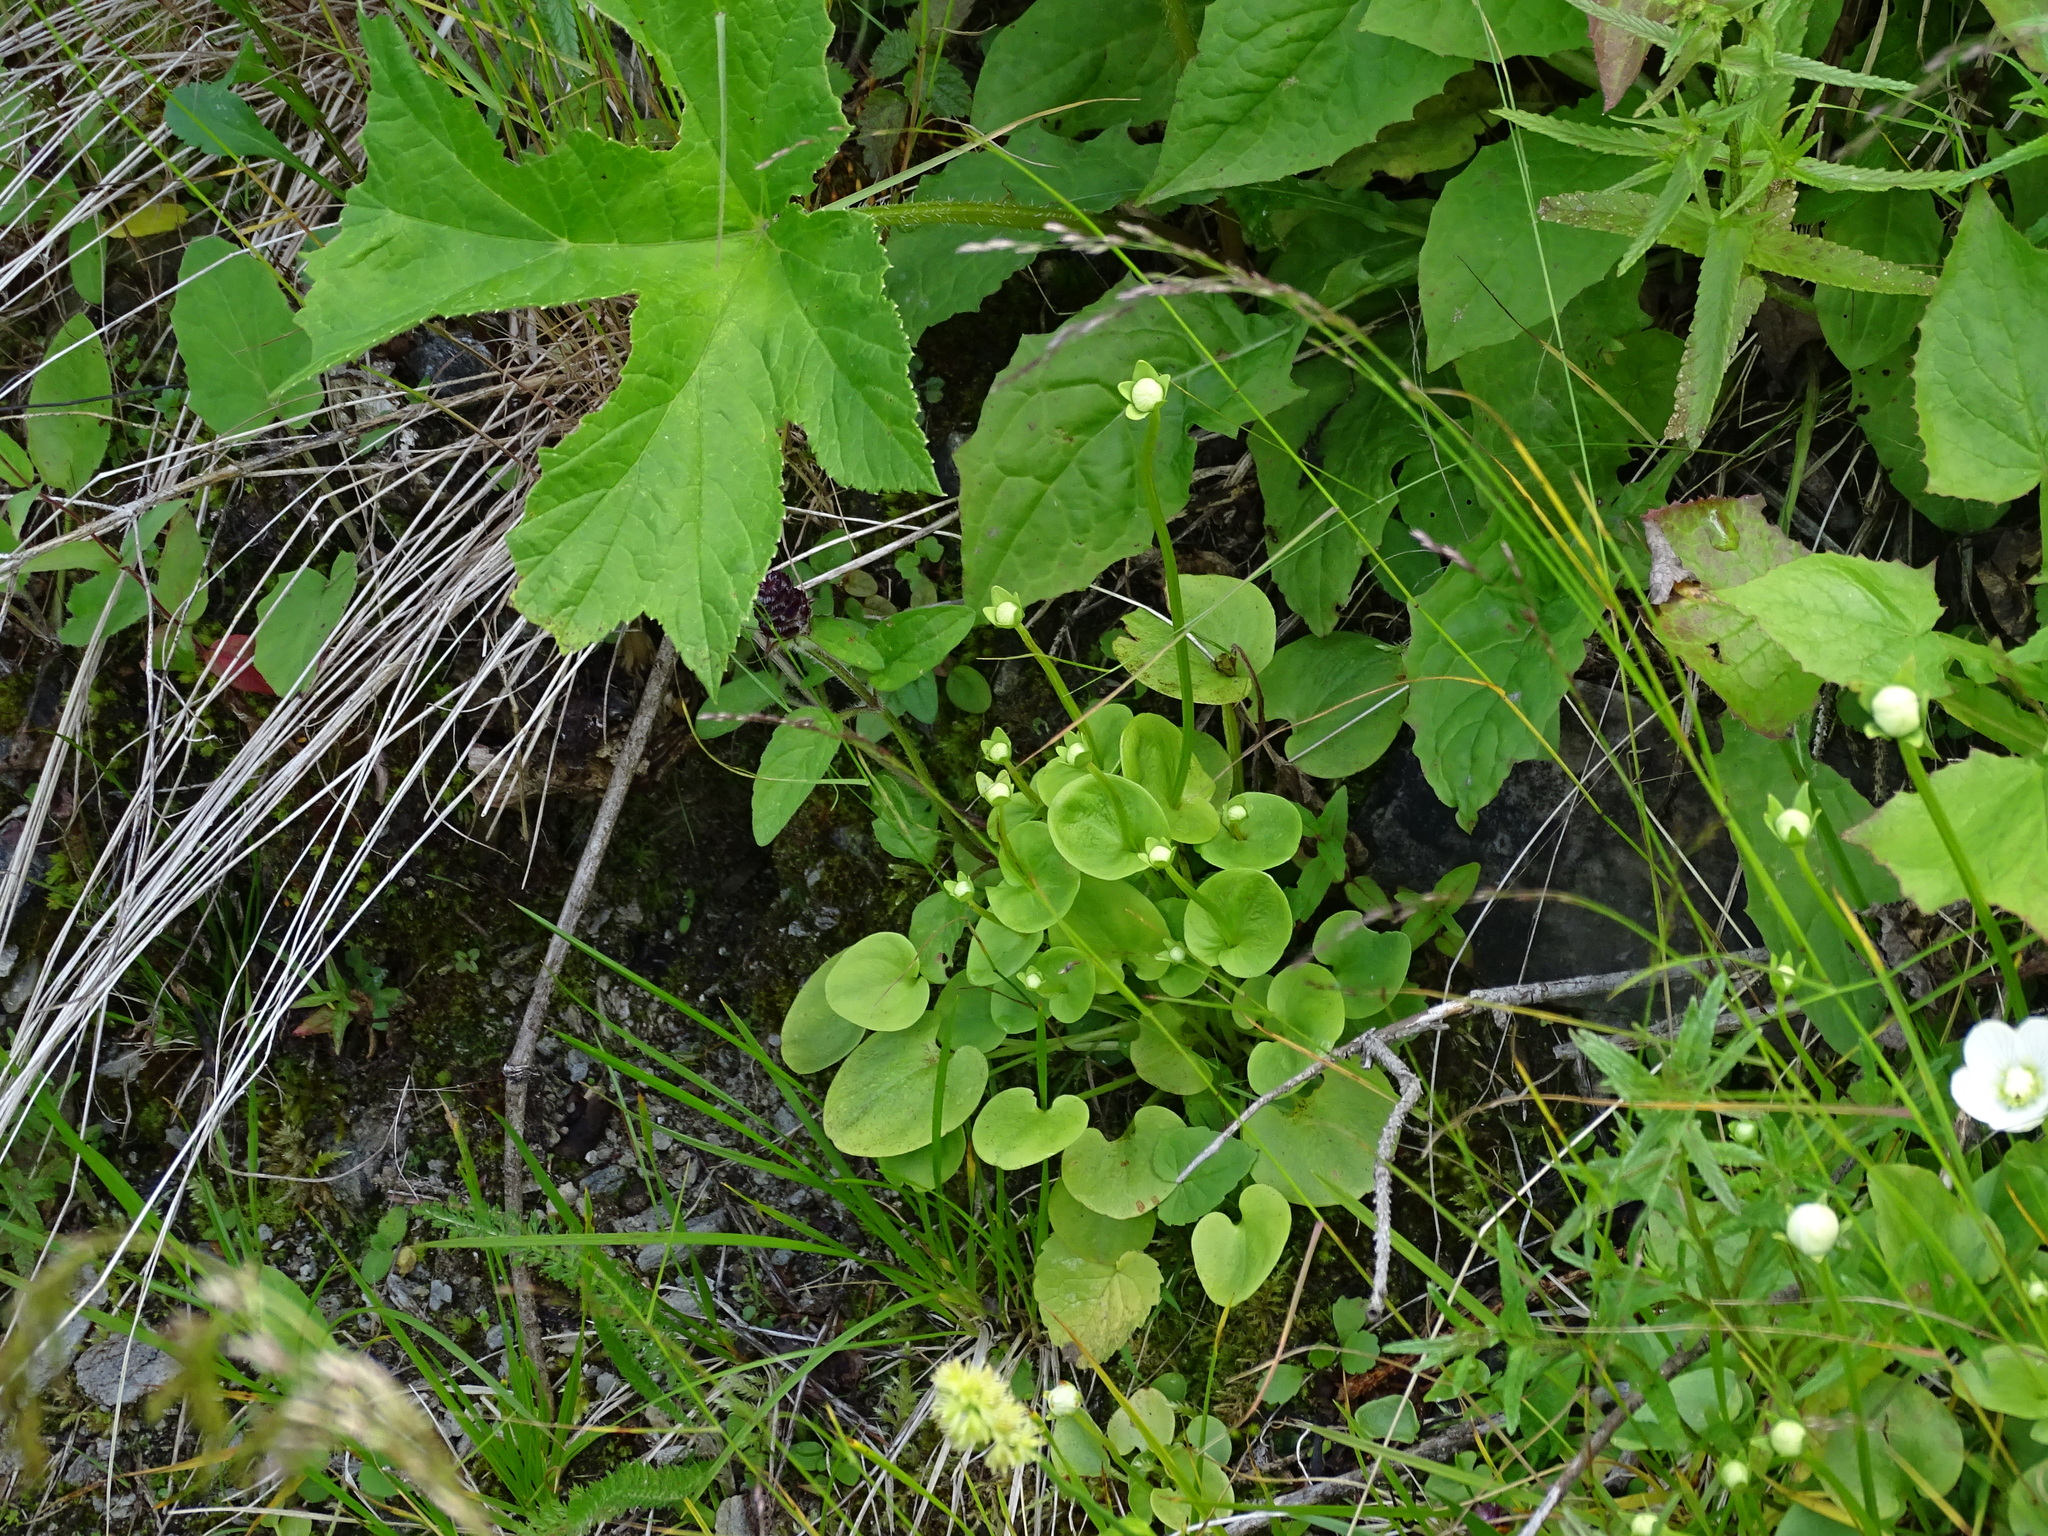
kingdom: Plantae
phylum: Tracheophyta
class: Magnoliopsida
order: Celastrales
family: Parnassiaceae
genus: Parnassia
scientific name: Parnassia palustris
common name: Grass-of-parnassus
